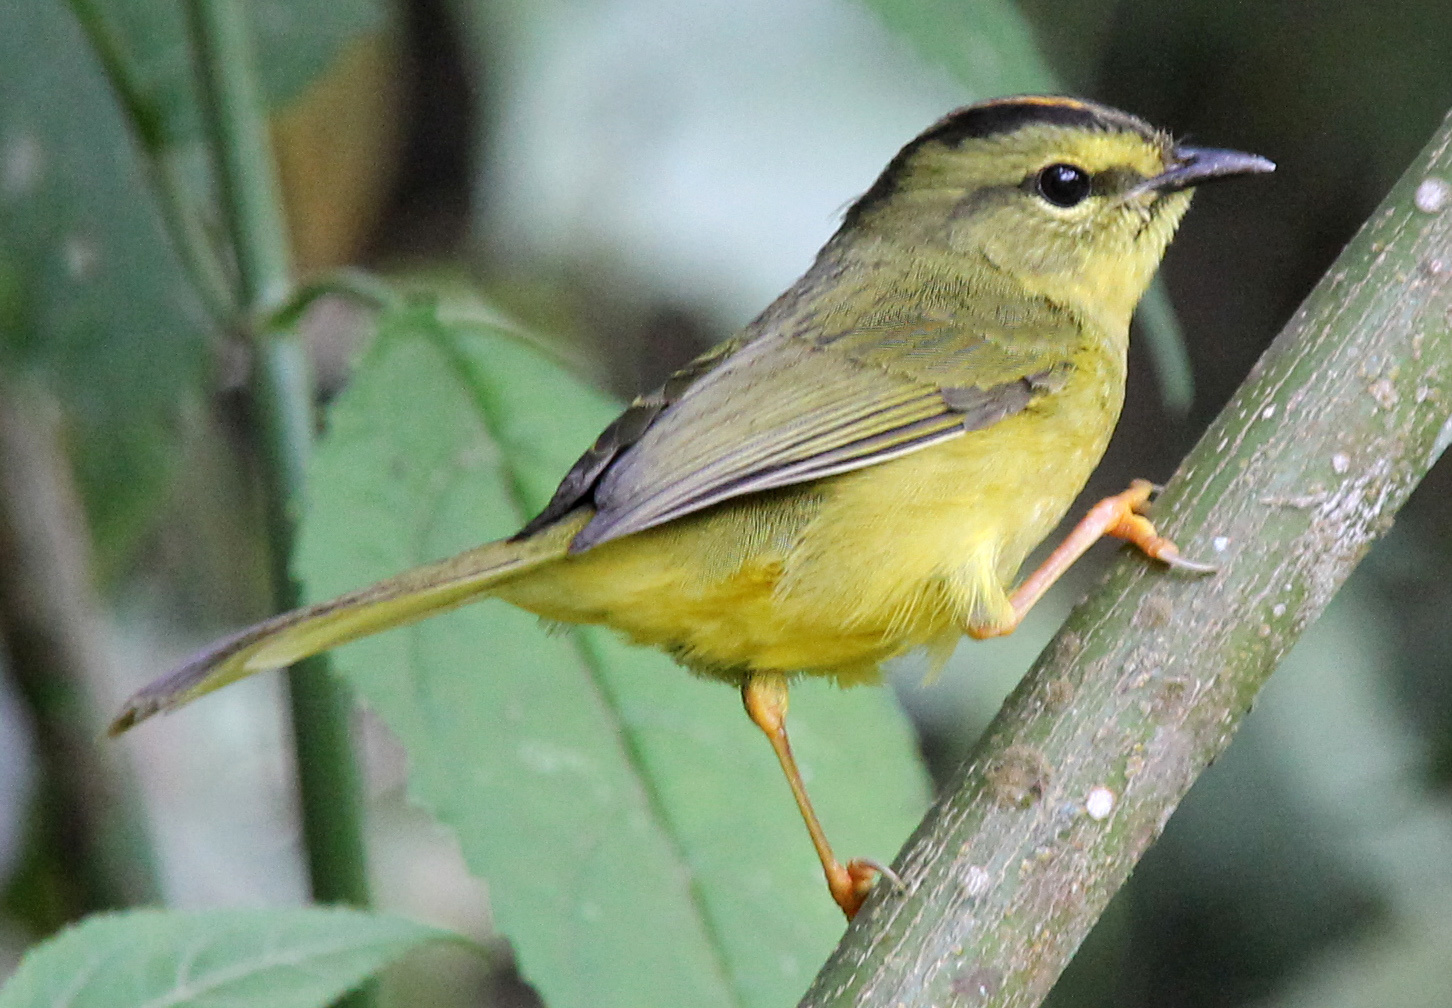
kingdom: Animalia
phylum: Chordata
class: Aves
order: Passeriformes
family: Parulidae
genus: Myiothlypis
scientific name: Myiothlypis bivittata
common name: Two-banded warbler
